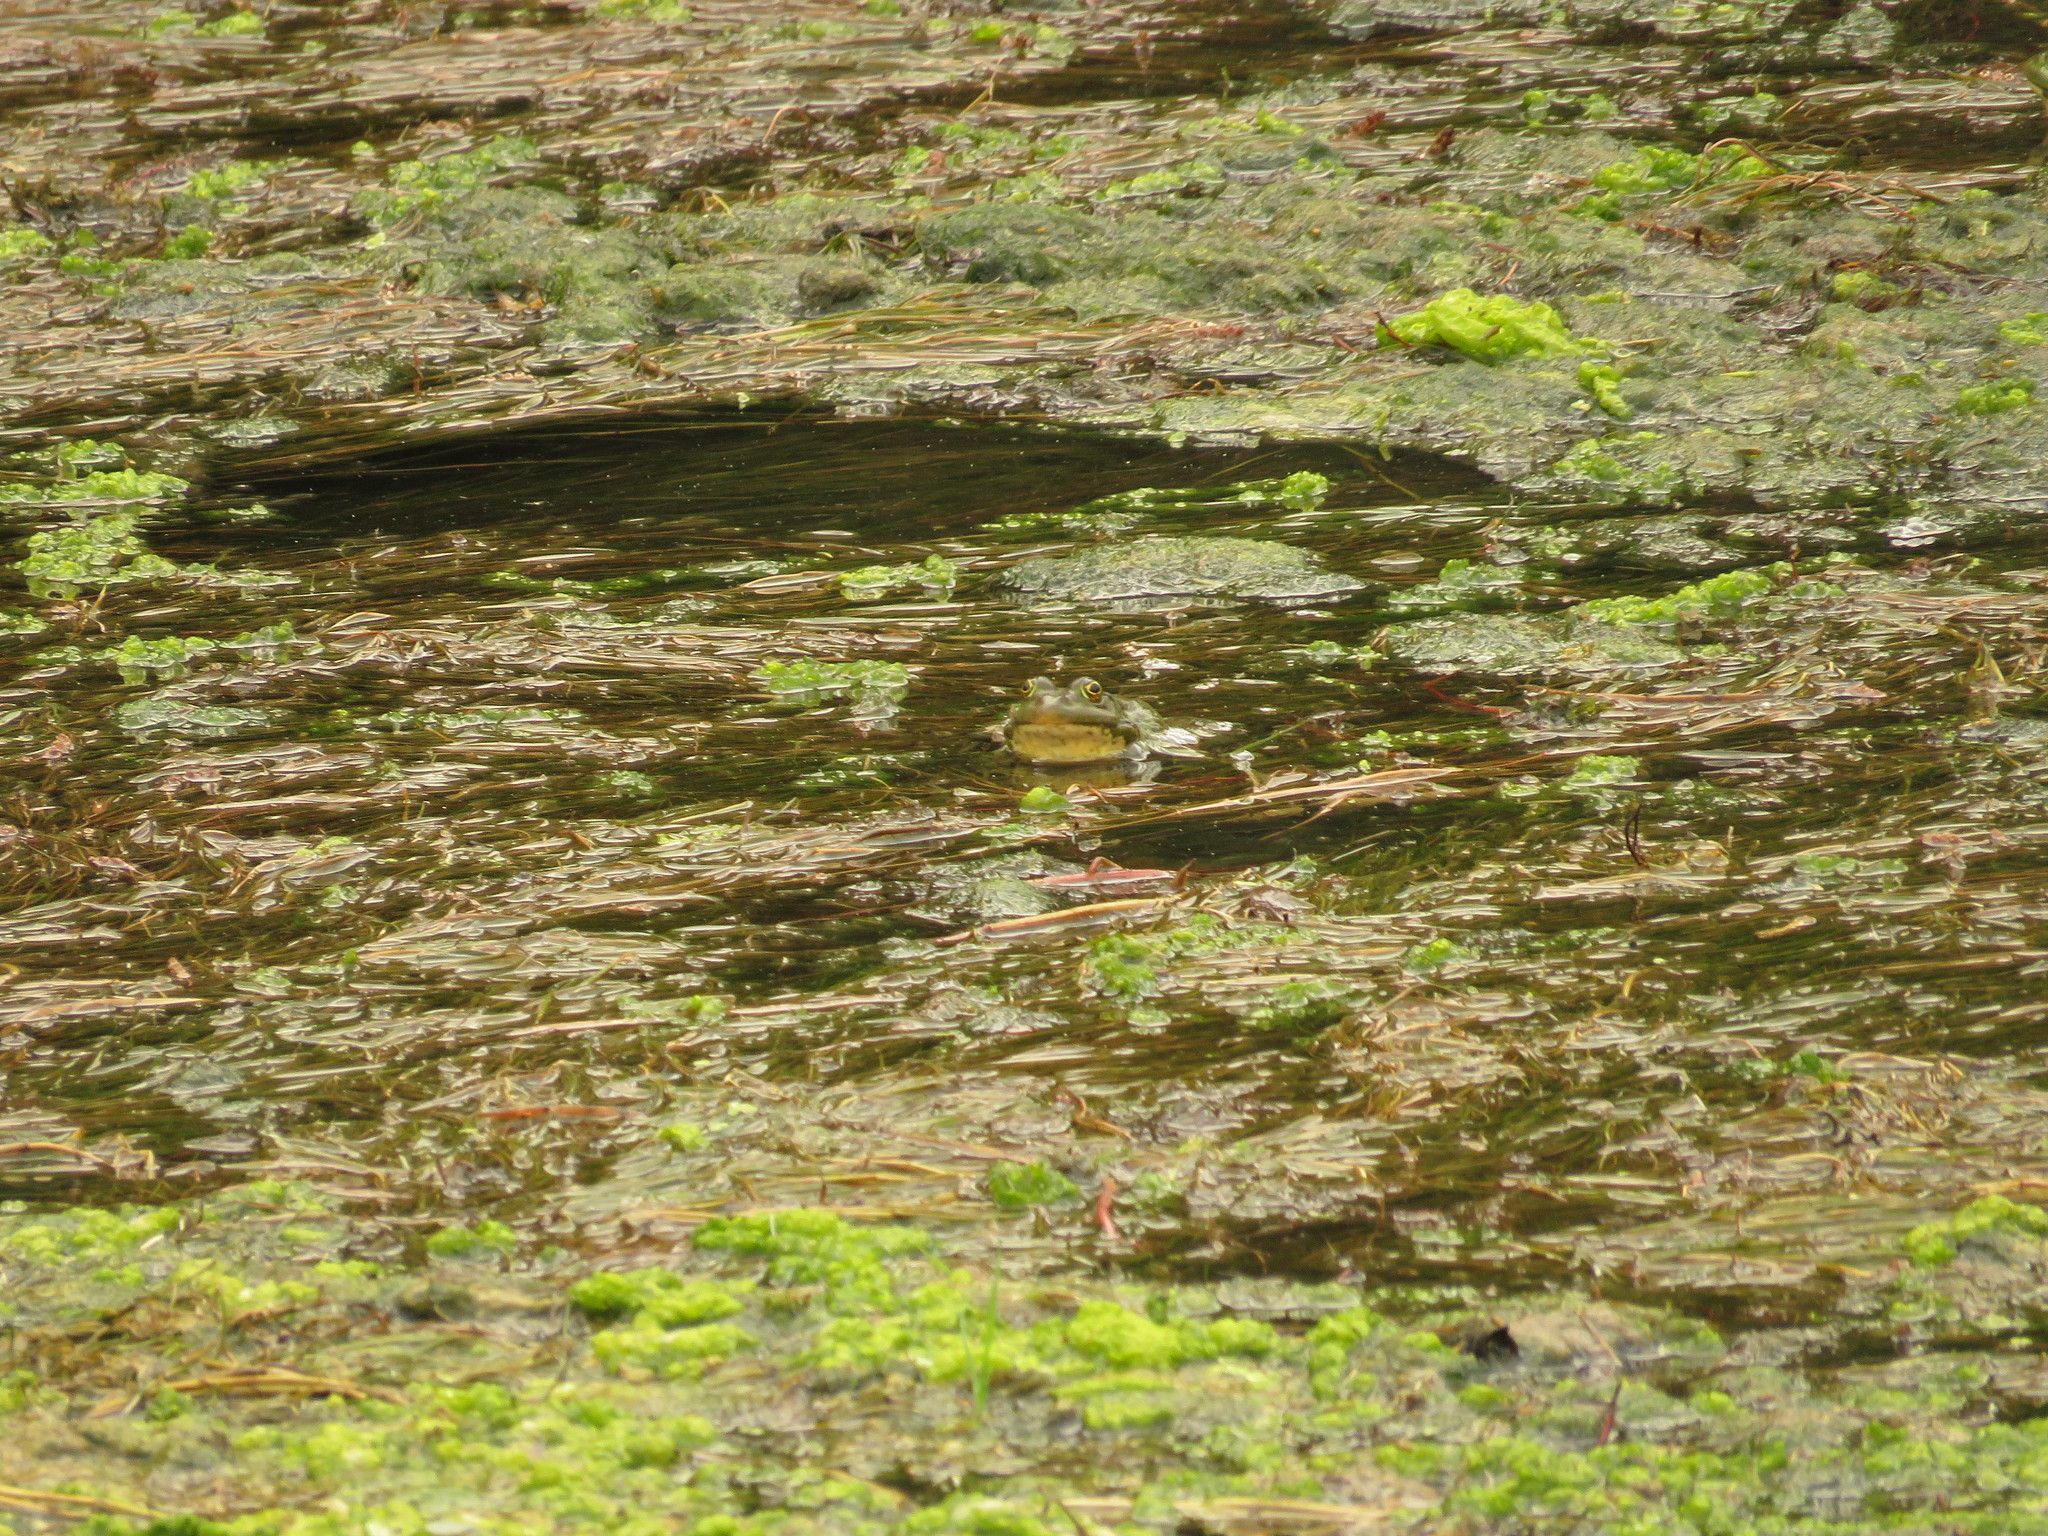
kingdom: Animalia
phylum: Chordata
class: Amphibia
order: Anura
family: Ranidae
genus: Pelophylax
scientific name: Pelophylax ridibundus
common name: Marsh frog
